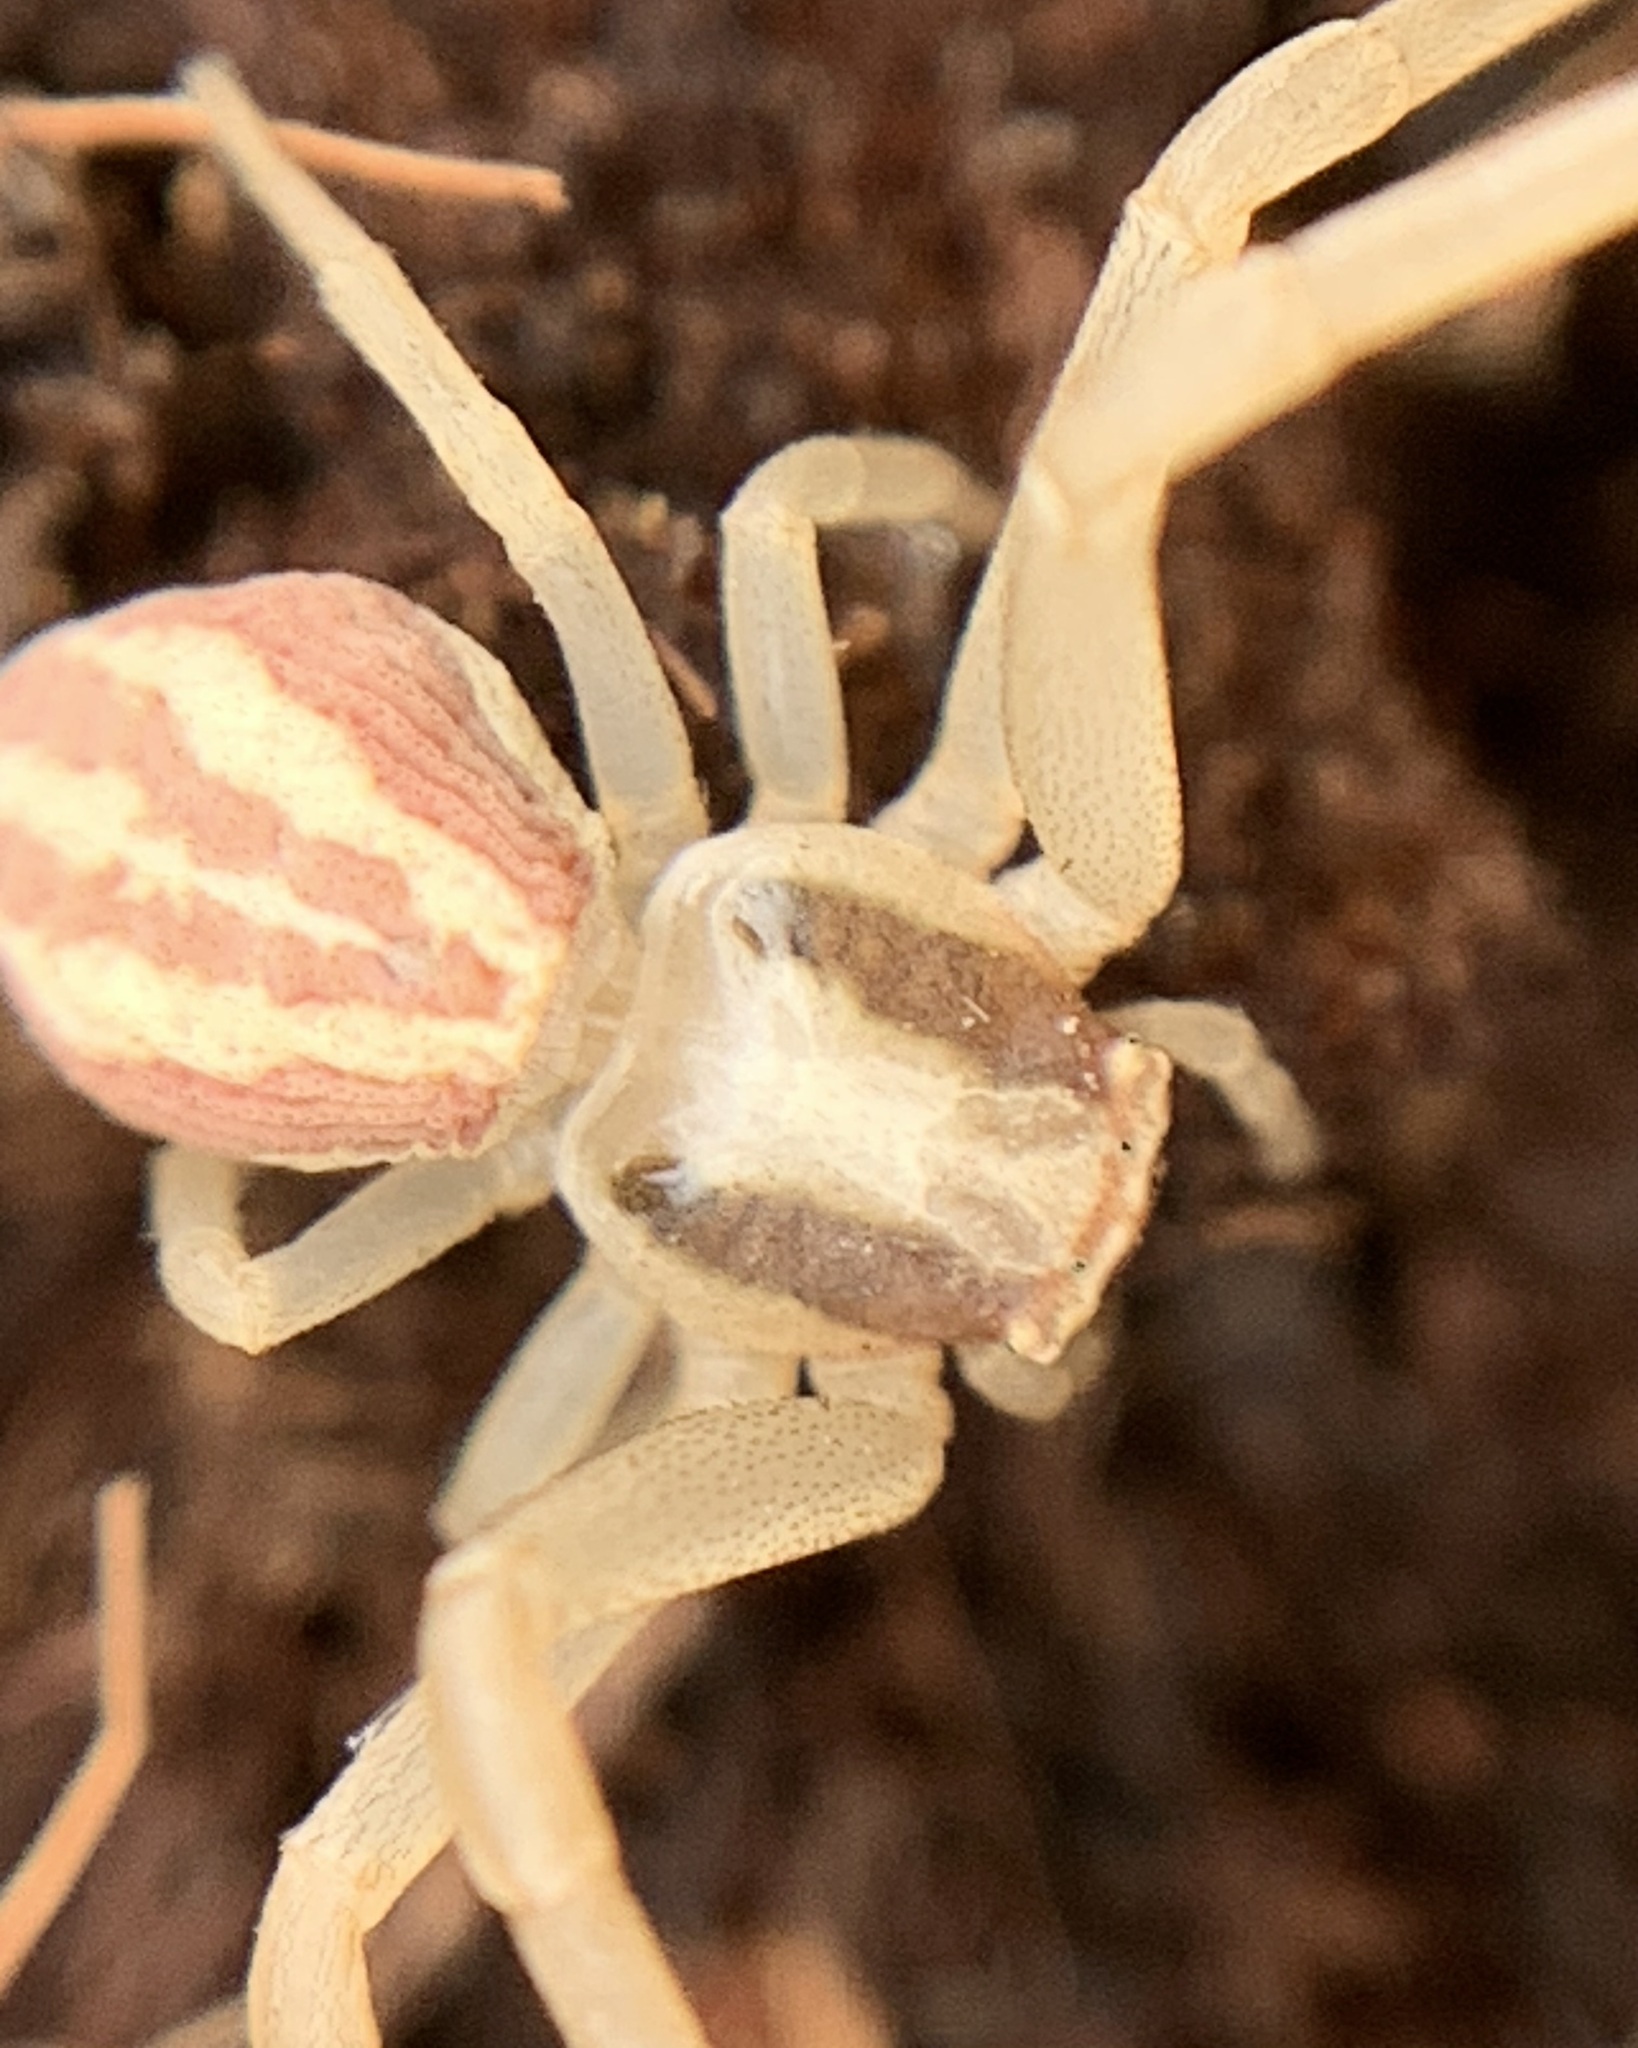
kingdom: Animalia
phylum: Arthropoda
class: Arachnida
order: Araneae
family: Thomisidae
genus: Runcinia
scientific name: Runcinia grammica
